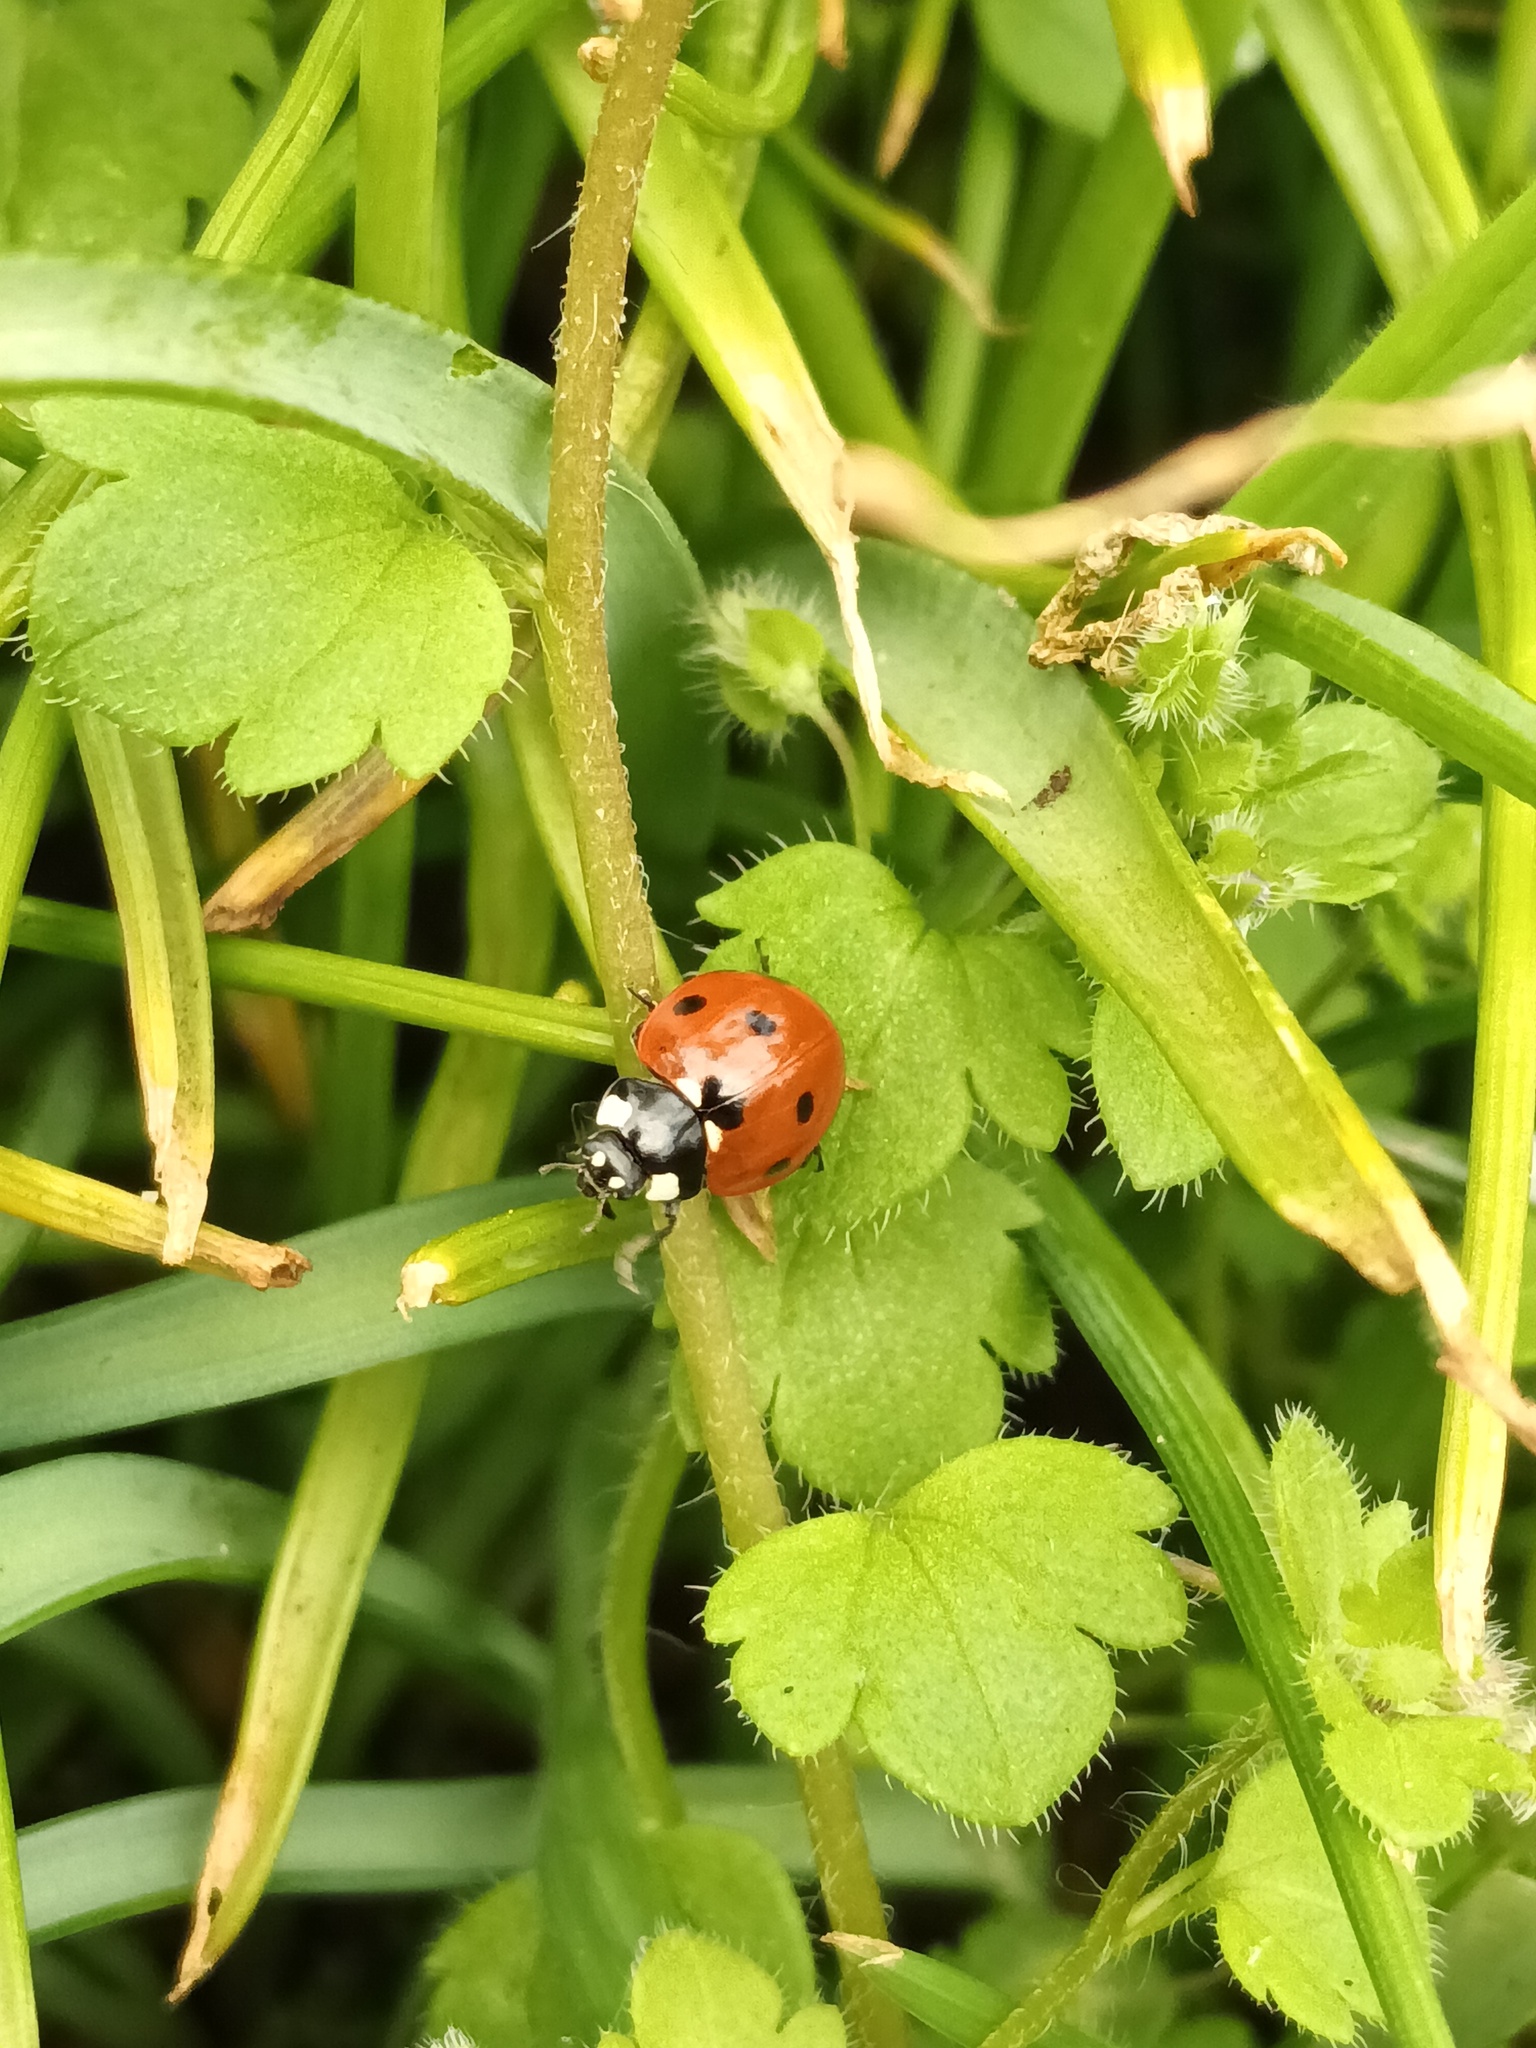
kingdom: Animalia
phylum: Arthropoda
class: Insecta
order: Coleoptera
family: Coccinellidae
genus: Coccinella
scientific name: Coccinella septempunctata
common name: Sevenspotted lady beetle
